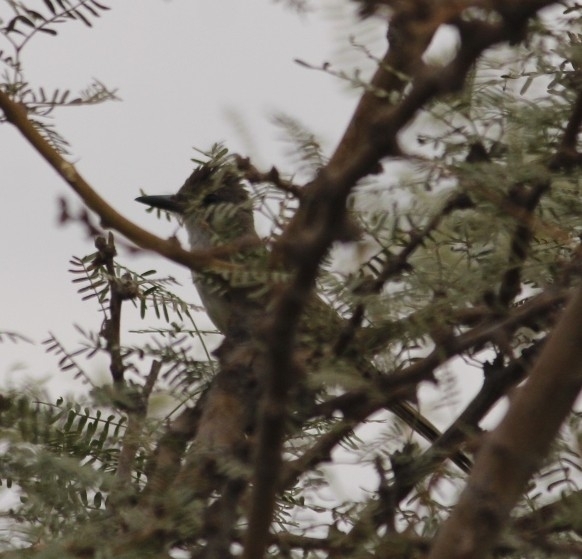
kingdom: Animalia
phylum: Chordata
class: Aves
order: Passeriformes
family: Tyrannidae
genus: Myiarchus
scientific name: Myiarchus cinerascens
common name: Ash-throated flycatcher
